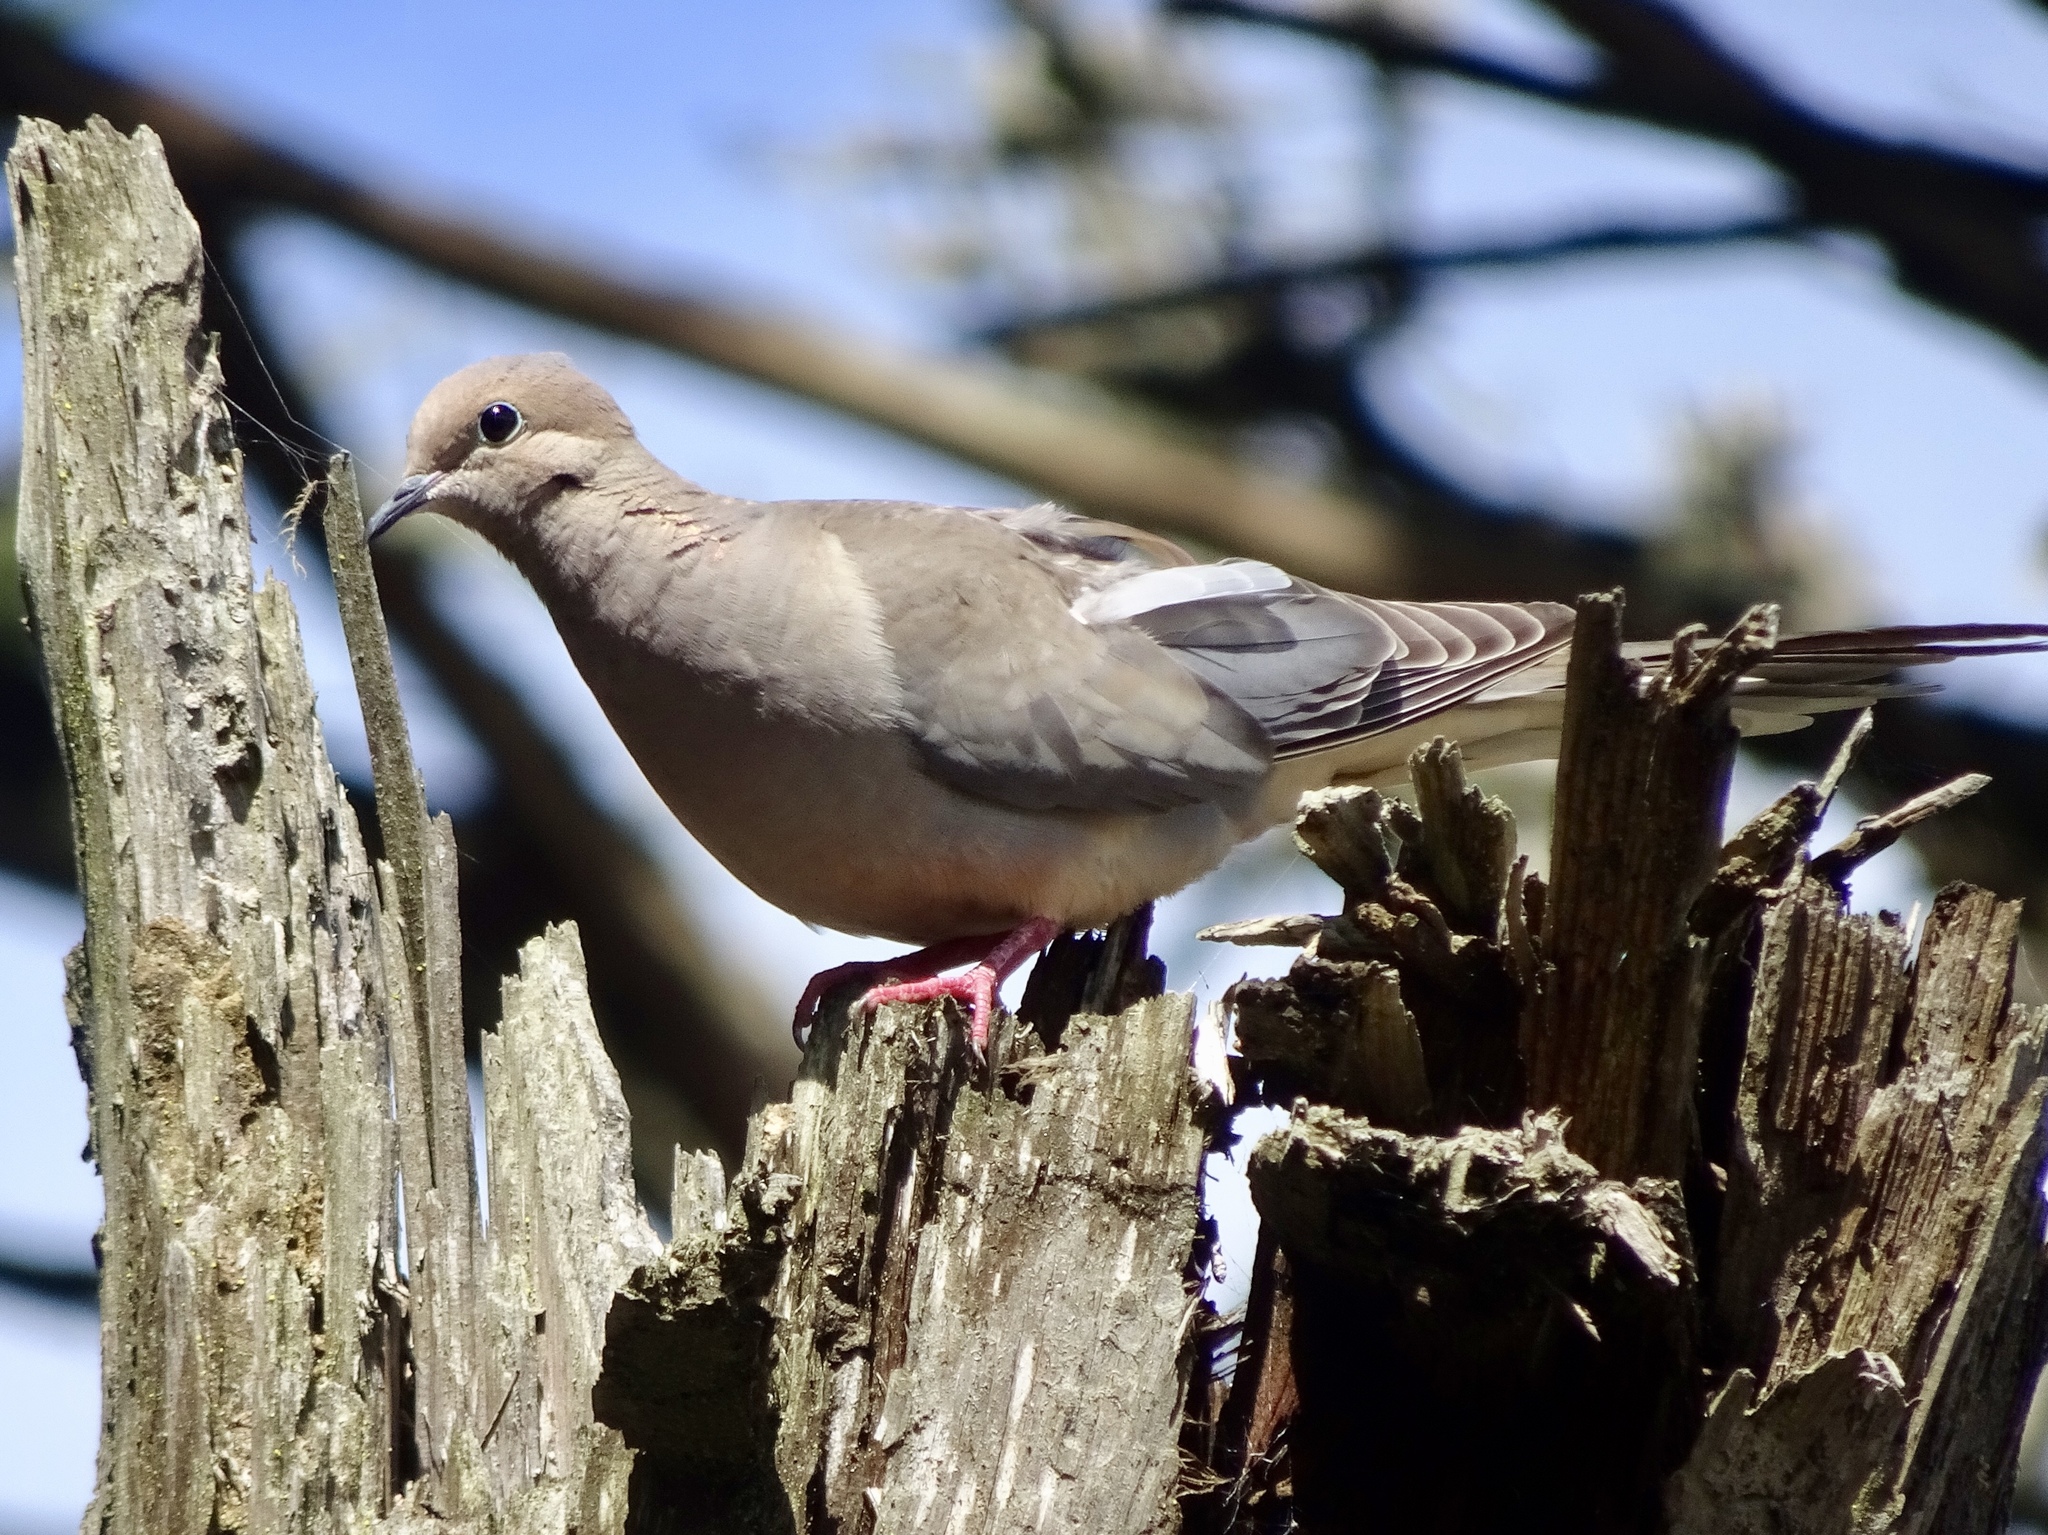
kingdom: Animalia
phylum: Chordata
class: Aves
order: Columbiformes
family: Columbidae
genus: Zenaida
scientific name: Zenaida macroura
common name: Mourning dove
